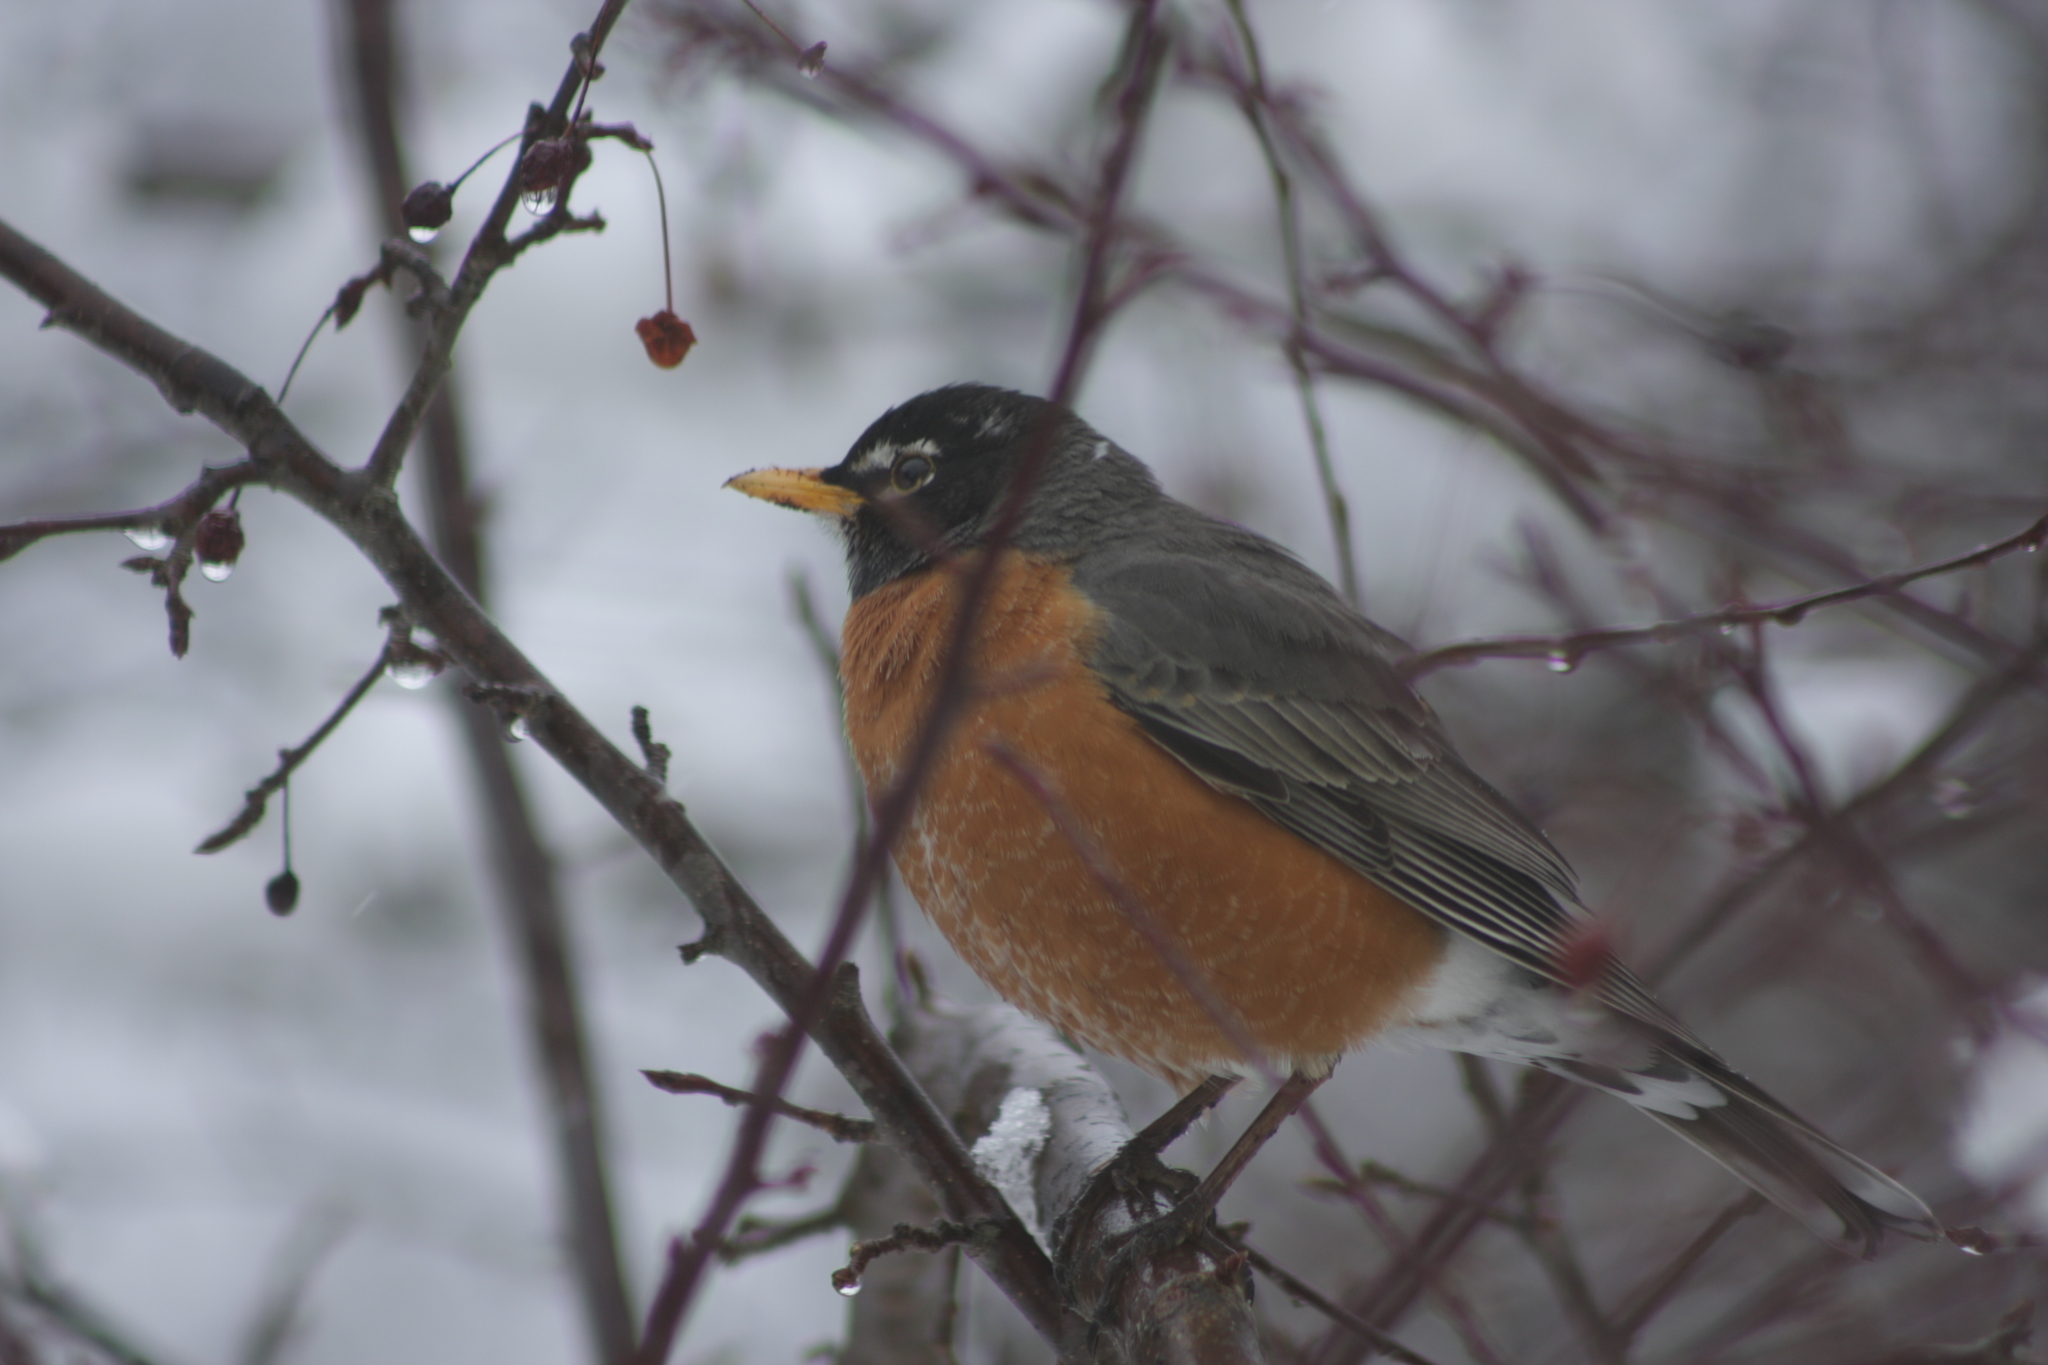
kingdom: Animalia
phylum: Chordata
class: Aves
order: Passeriformes
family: Turdidae
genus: Turdus
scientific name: Turdus migratorius
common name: American robin
